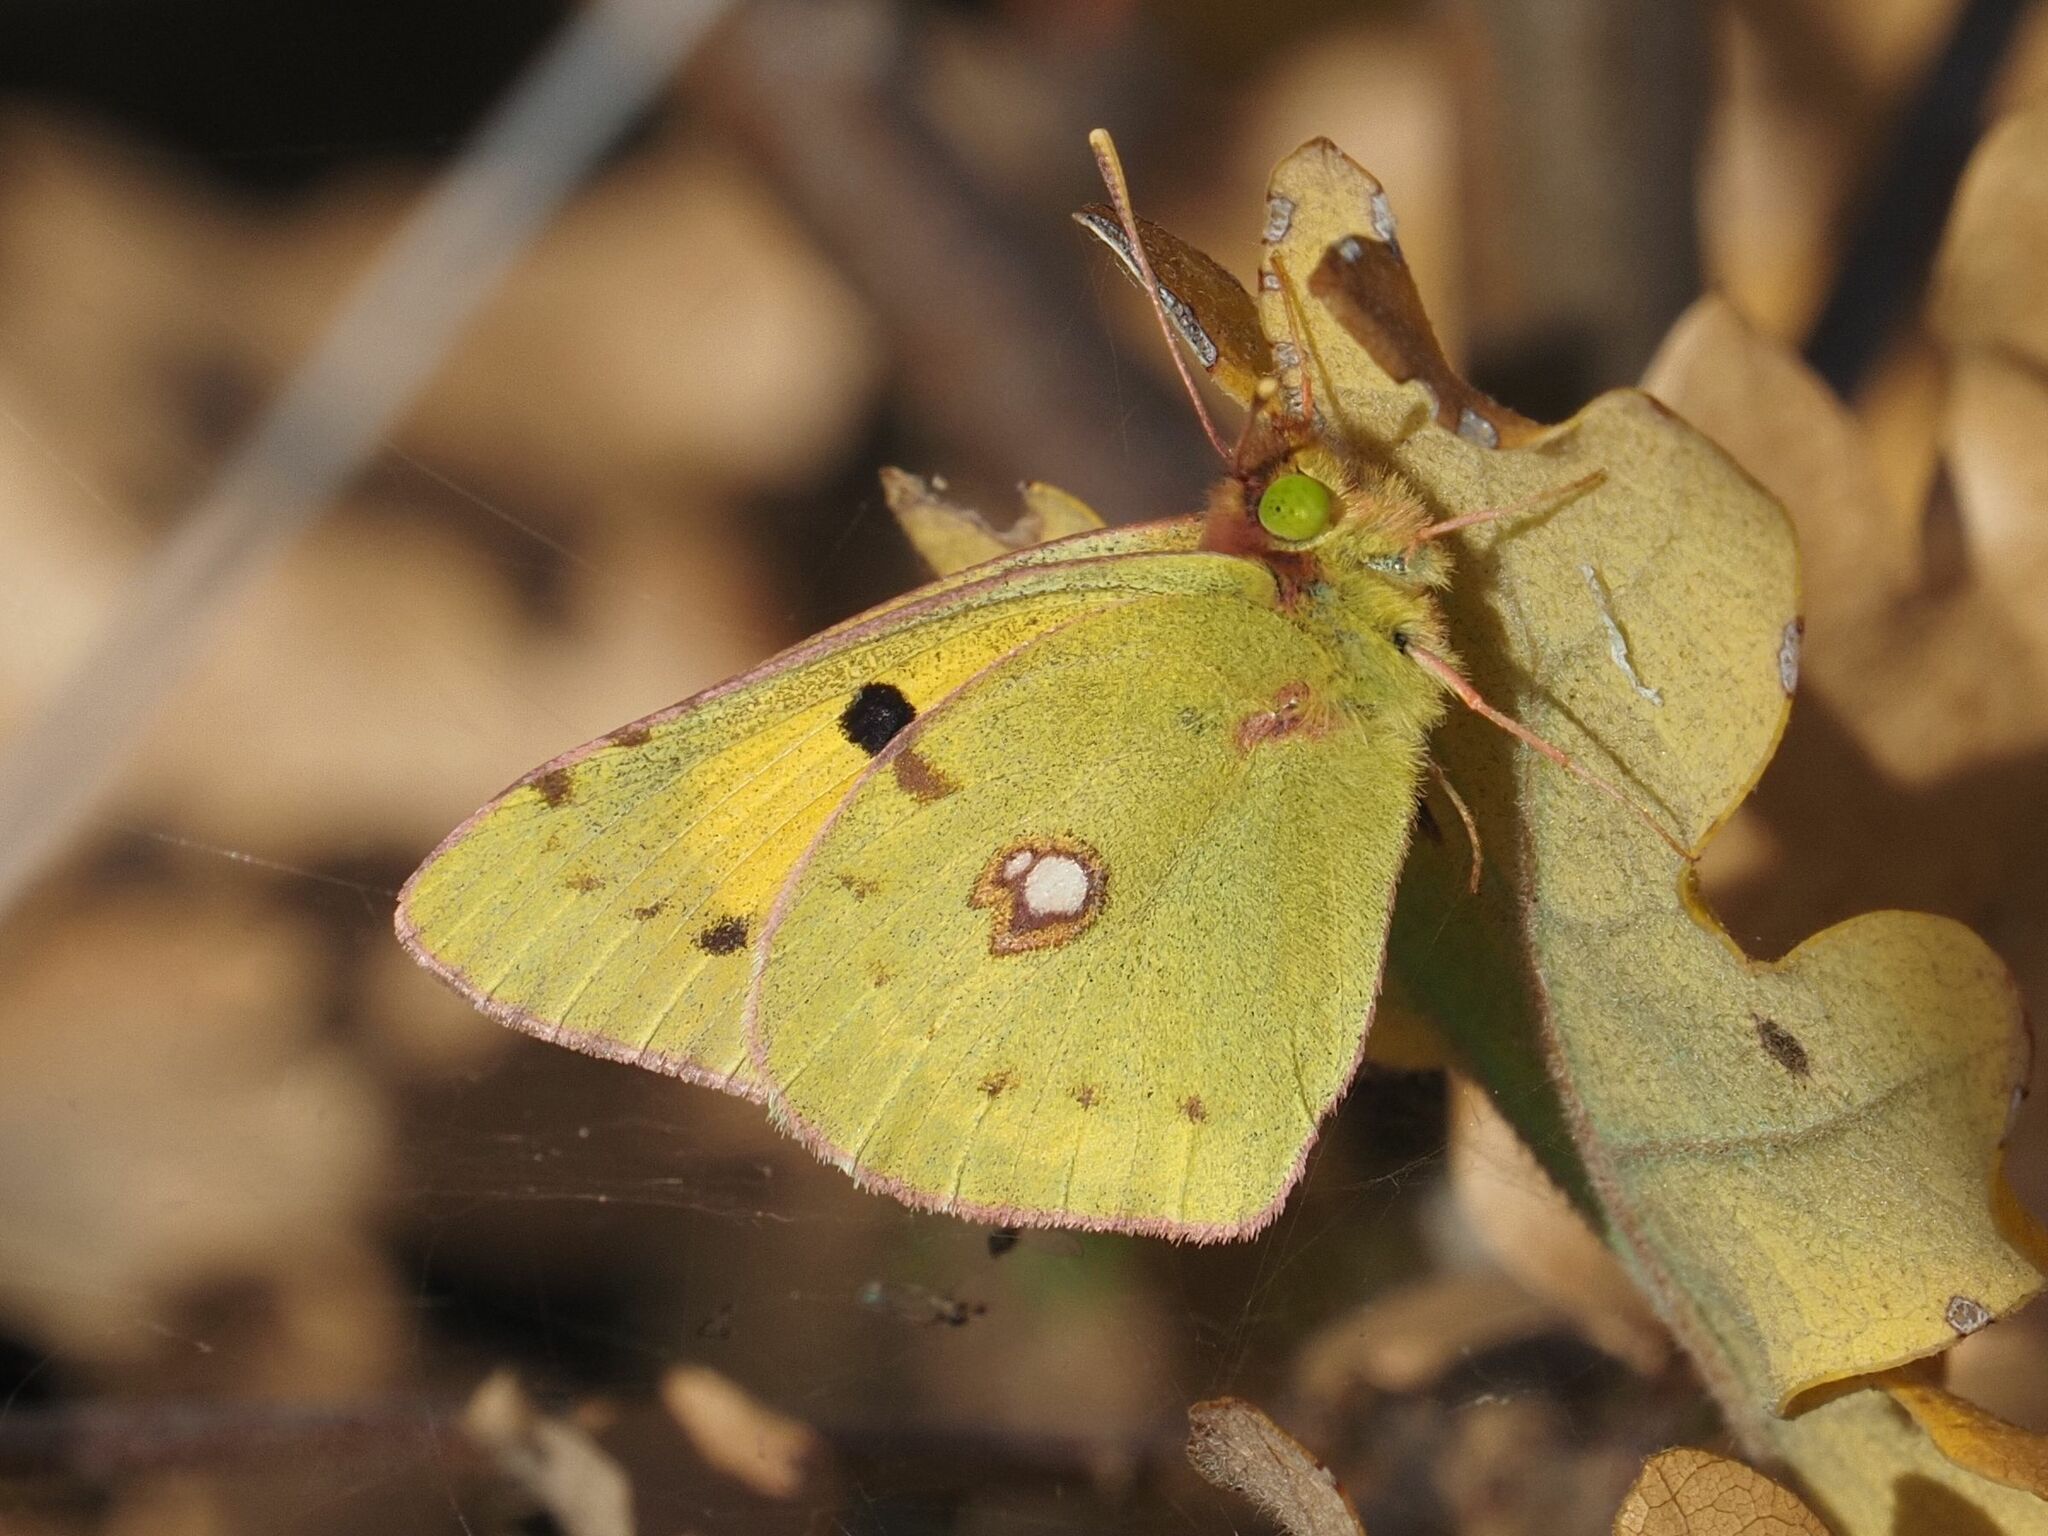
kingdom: Animalia
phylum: Arthropoda
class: Insecta
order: Lepidoptera
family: Pieridae
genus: Colias
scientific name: Colias croceus
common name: Clouded yellow
